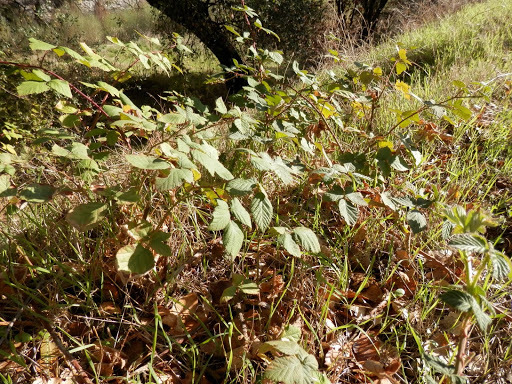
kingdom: Plantae
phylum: Tracheophyta
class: Magnoliopsida
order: Rosales
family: Rosaceae
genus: Rubus
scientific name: Rubus armeniacus
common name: Himalayan blackberry
